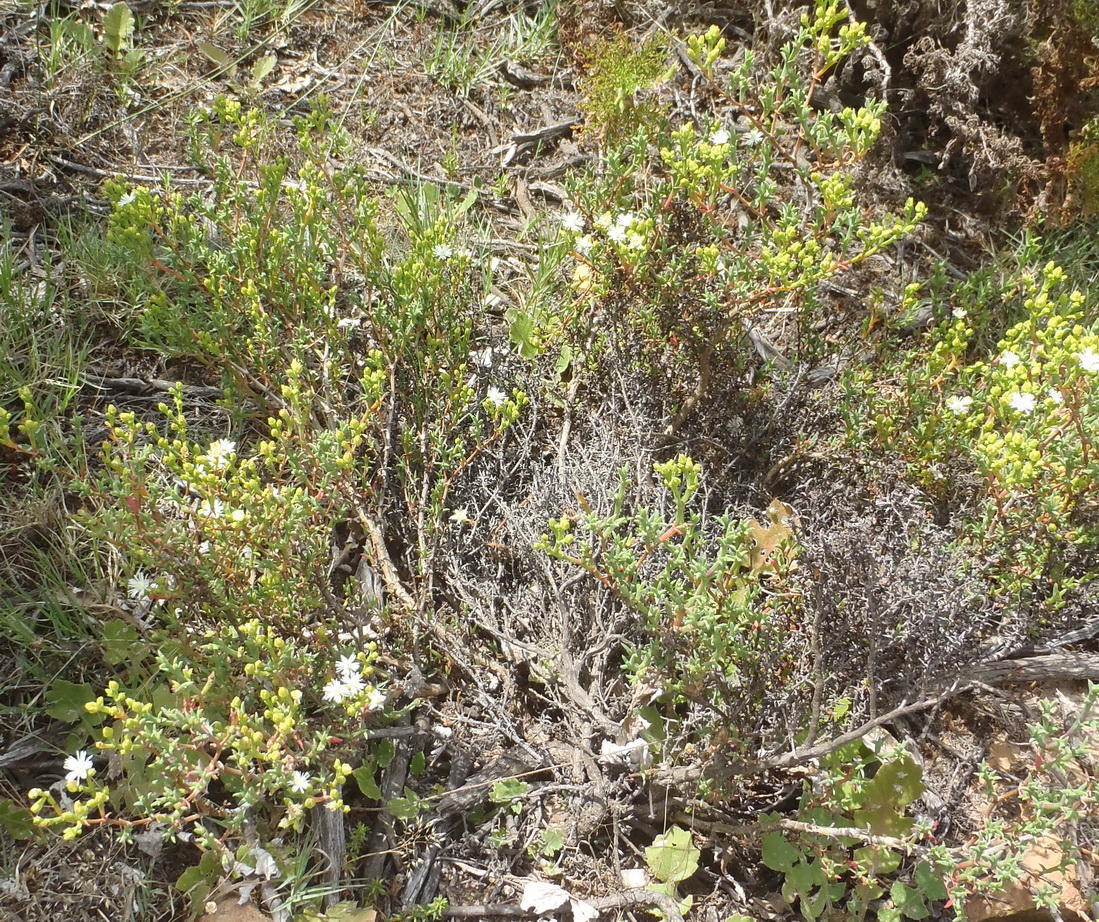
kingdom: Plantae
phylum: Tracheophyta
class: Magnoliopsida
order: Caryophyllales
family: Aizoaceae
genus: Ruschia
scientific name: Ruschia tenella
